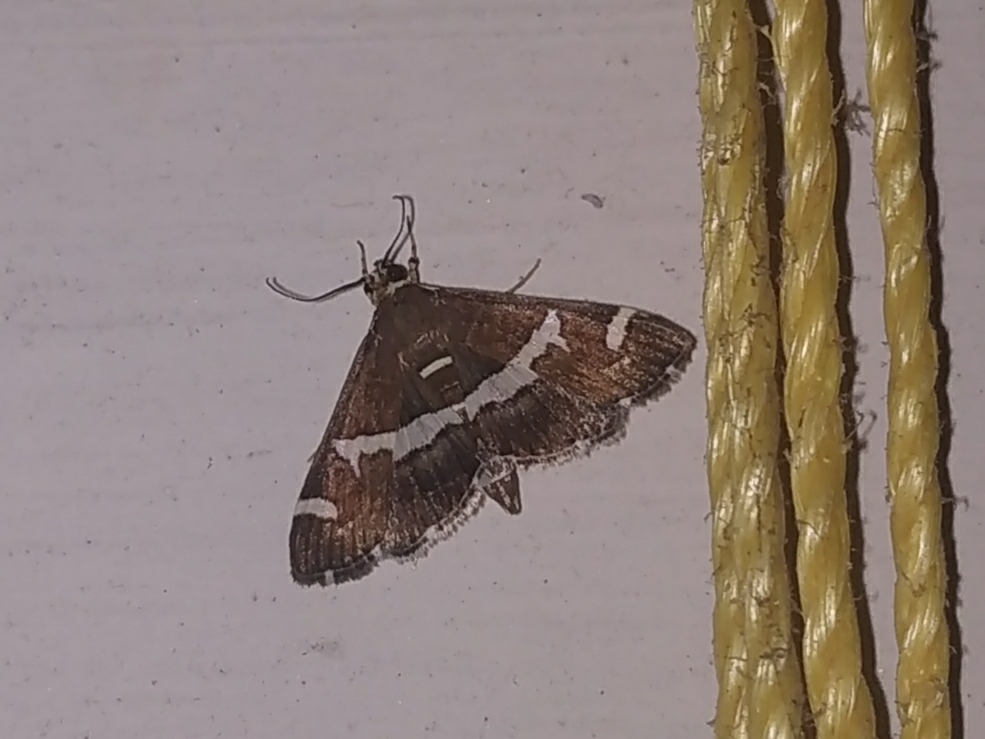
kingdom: Animalia
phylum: Arthropoda
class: Insecta
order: Lepidoptera
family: Crambidae
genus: Spoladea
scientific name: Spoladea recurvalis
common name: Beet webworm moth
